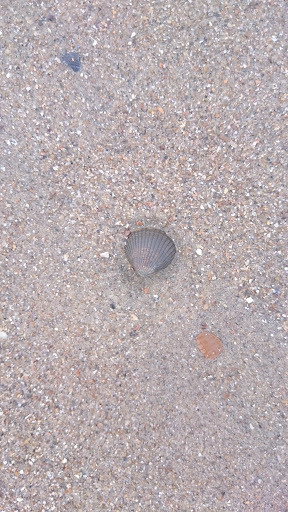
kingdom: Animalia
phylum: Mollusca
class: Bivalvia
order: Cardiida
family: Cardiidae
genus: Cerastoderma
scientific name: Cerastoderma edule
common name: Common cockle
